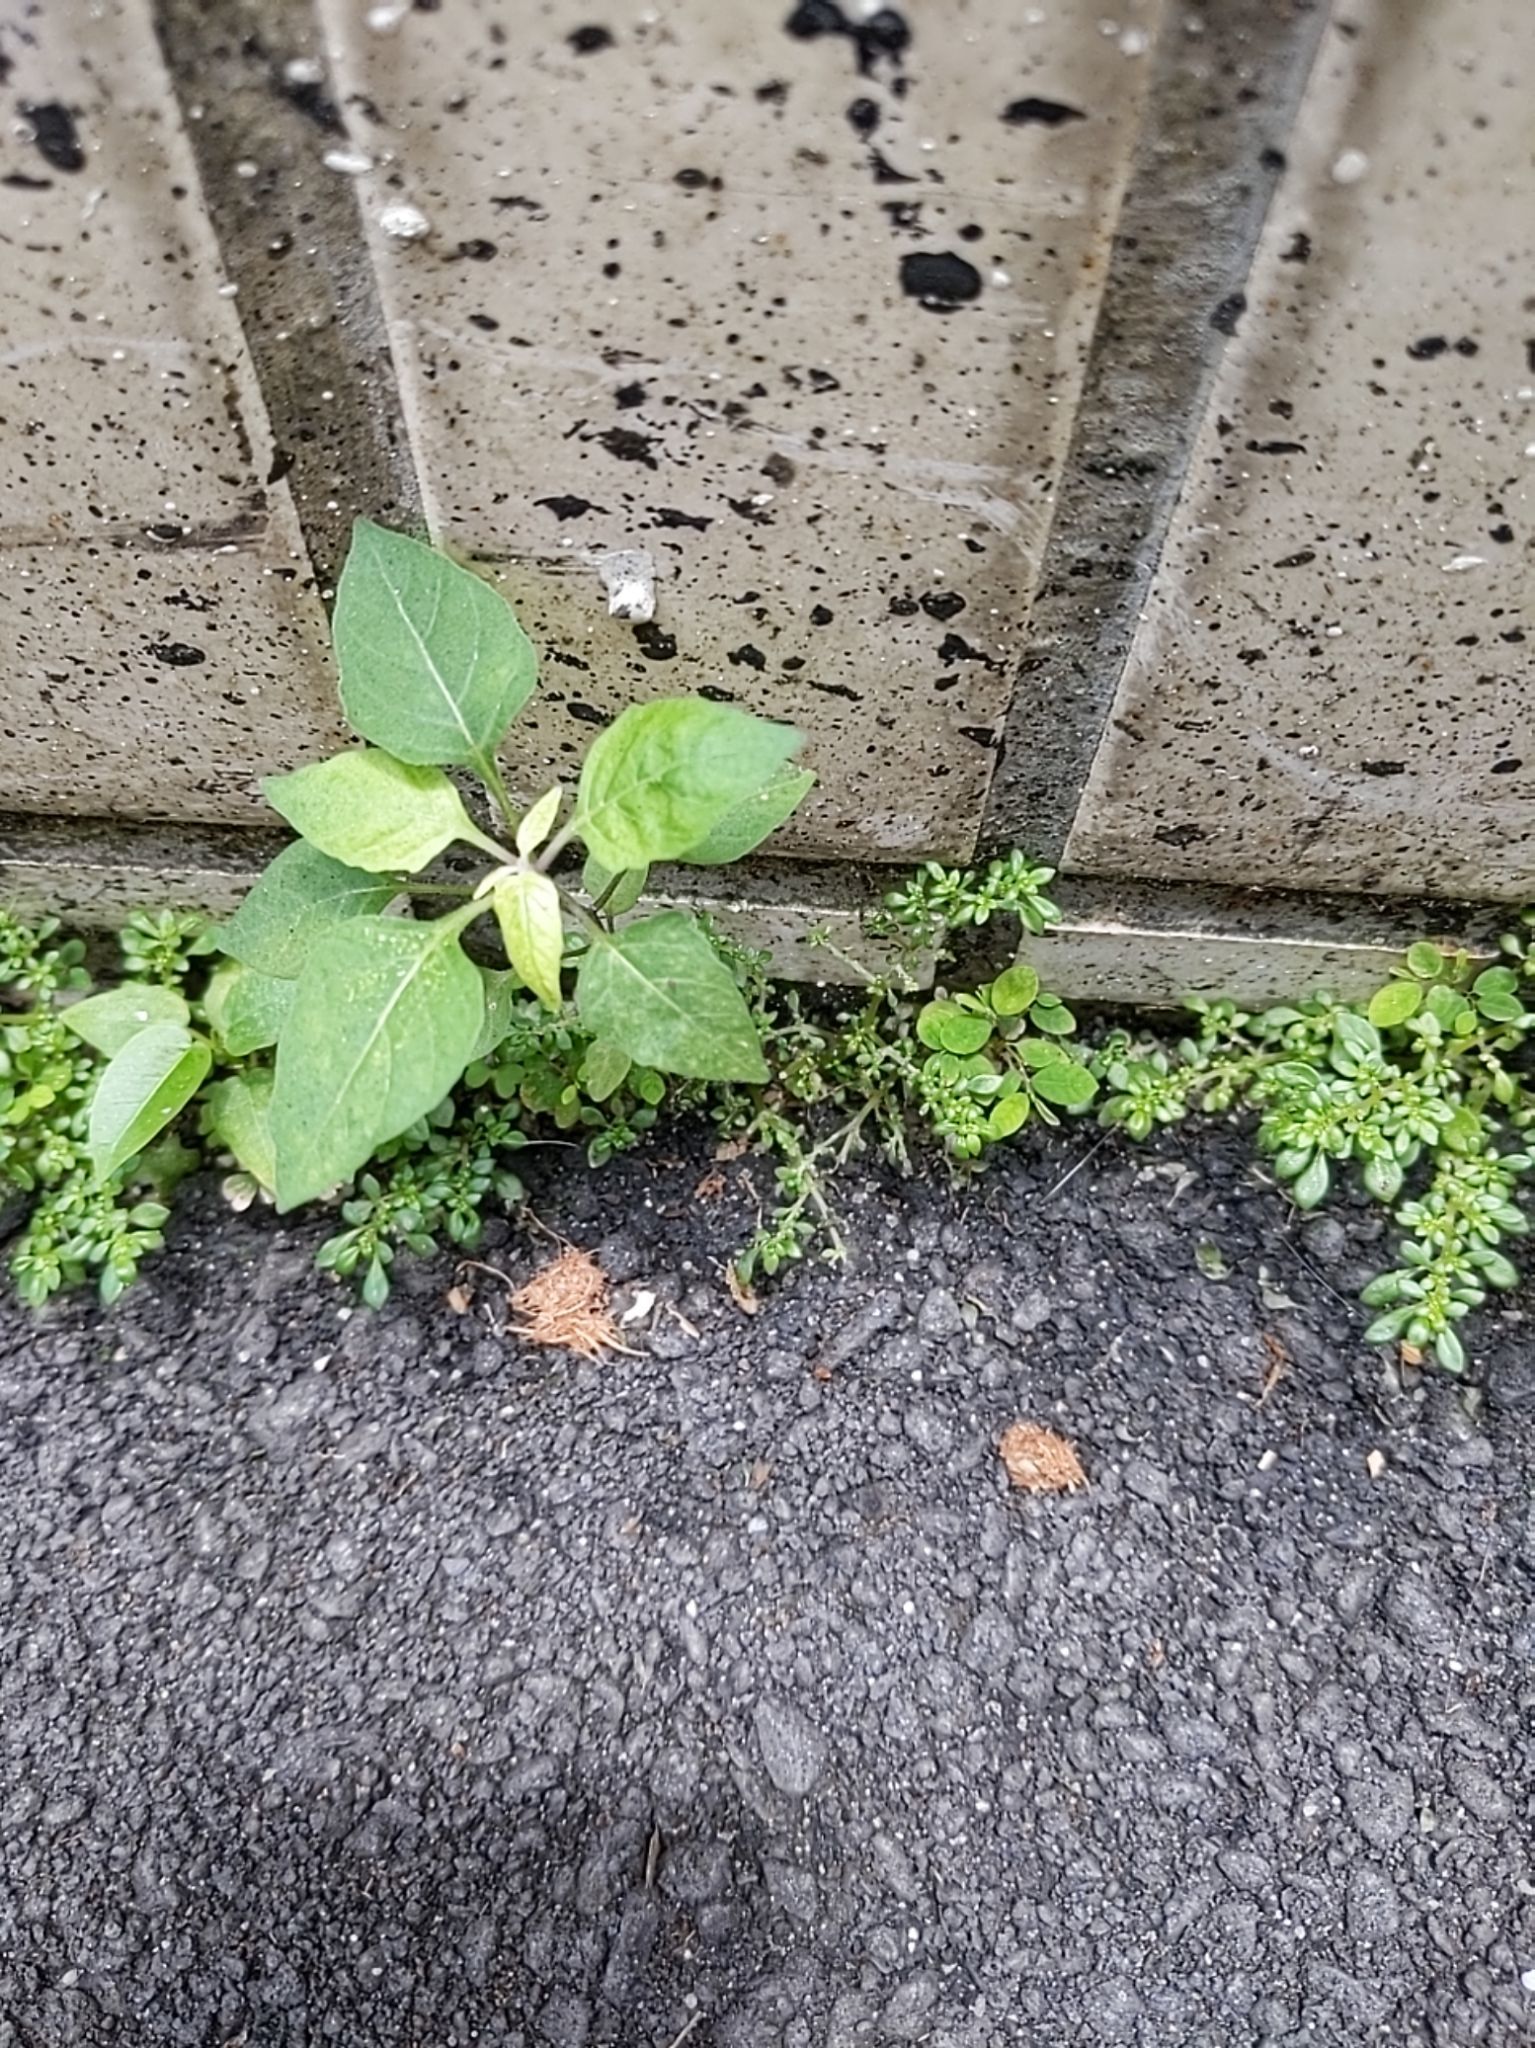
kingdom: Plantae
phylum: Tracheophyta
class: Magnoliopsida
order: Solanales
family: Solanaceae
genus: Solanum
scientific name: Solanum americanum
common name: American black nightshade
